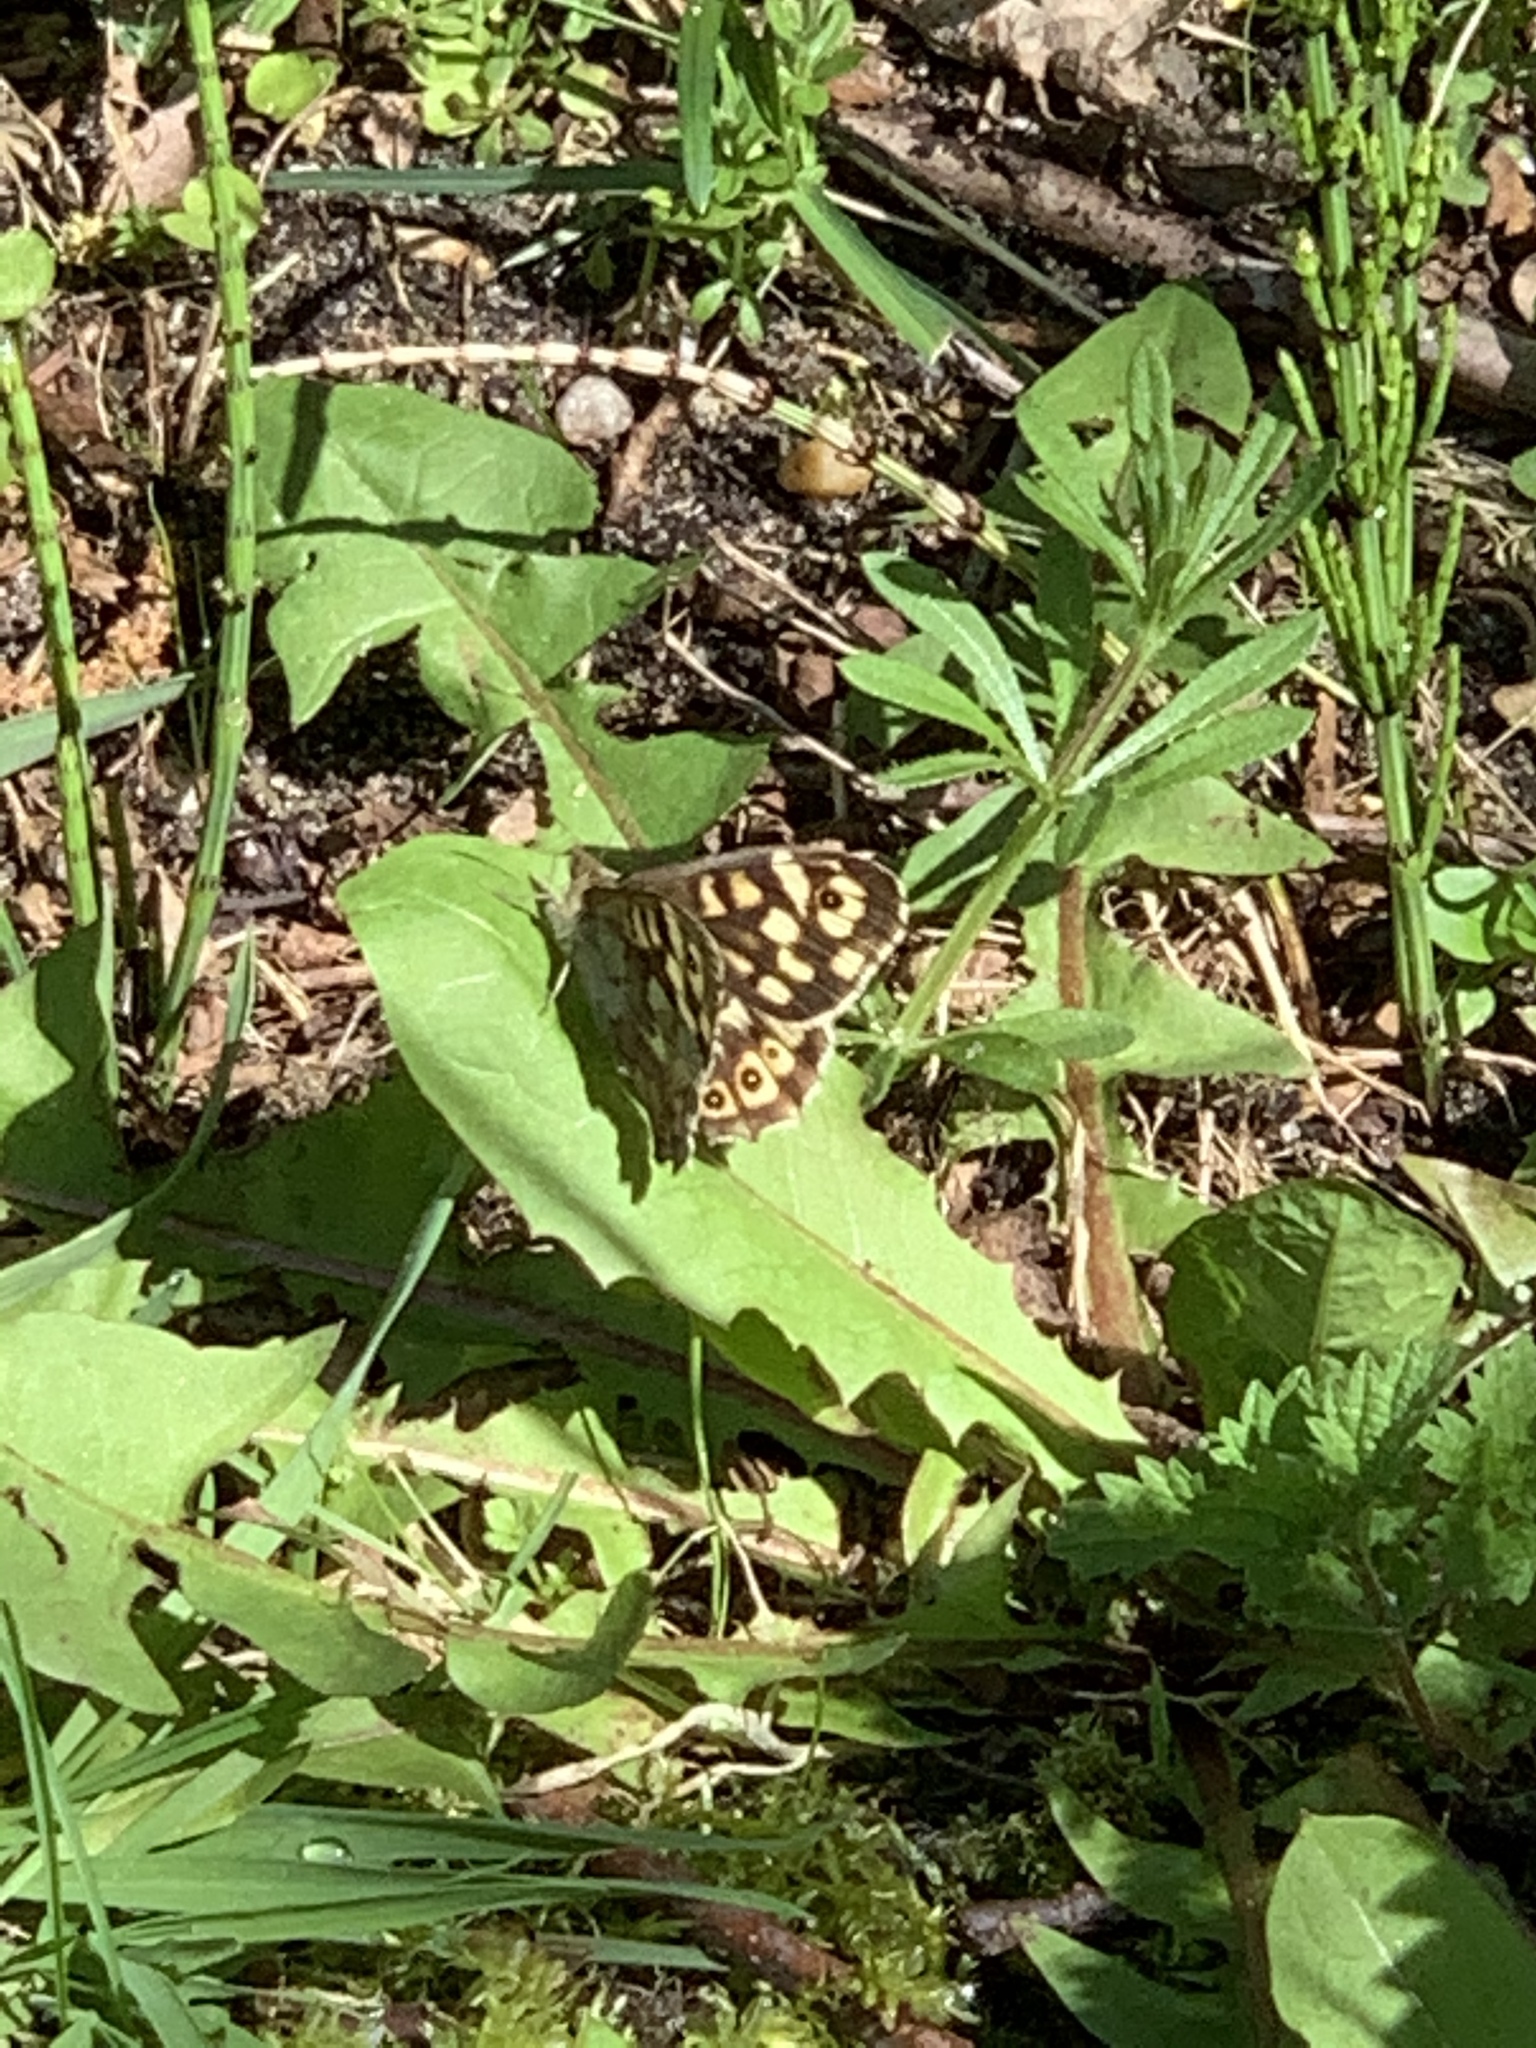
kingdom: Animalia
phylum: Arthropoda
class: Insecta
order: Lepidoptera
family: Nymphalidae
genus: Pararge
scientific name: Pararge aegeria
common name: Speckled wood
